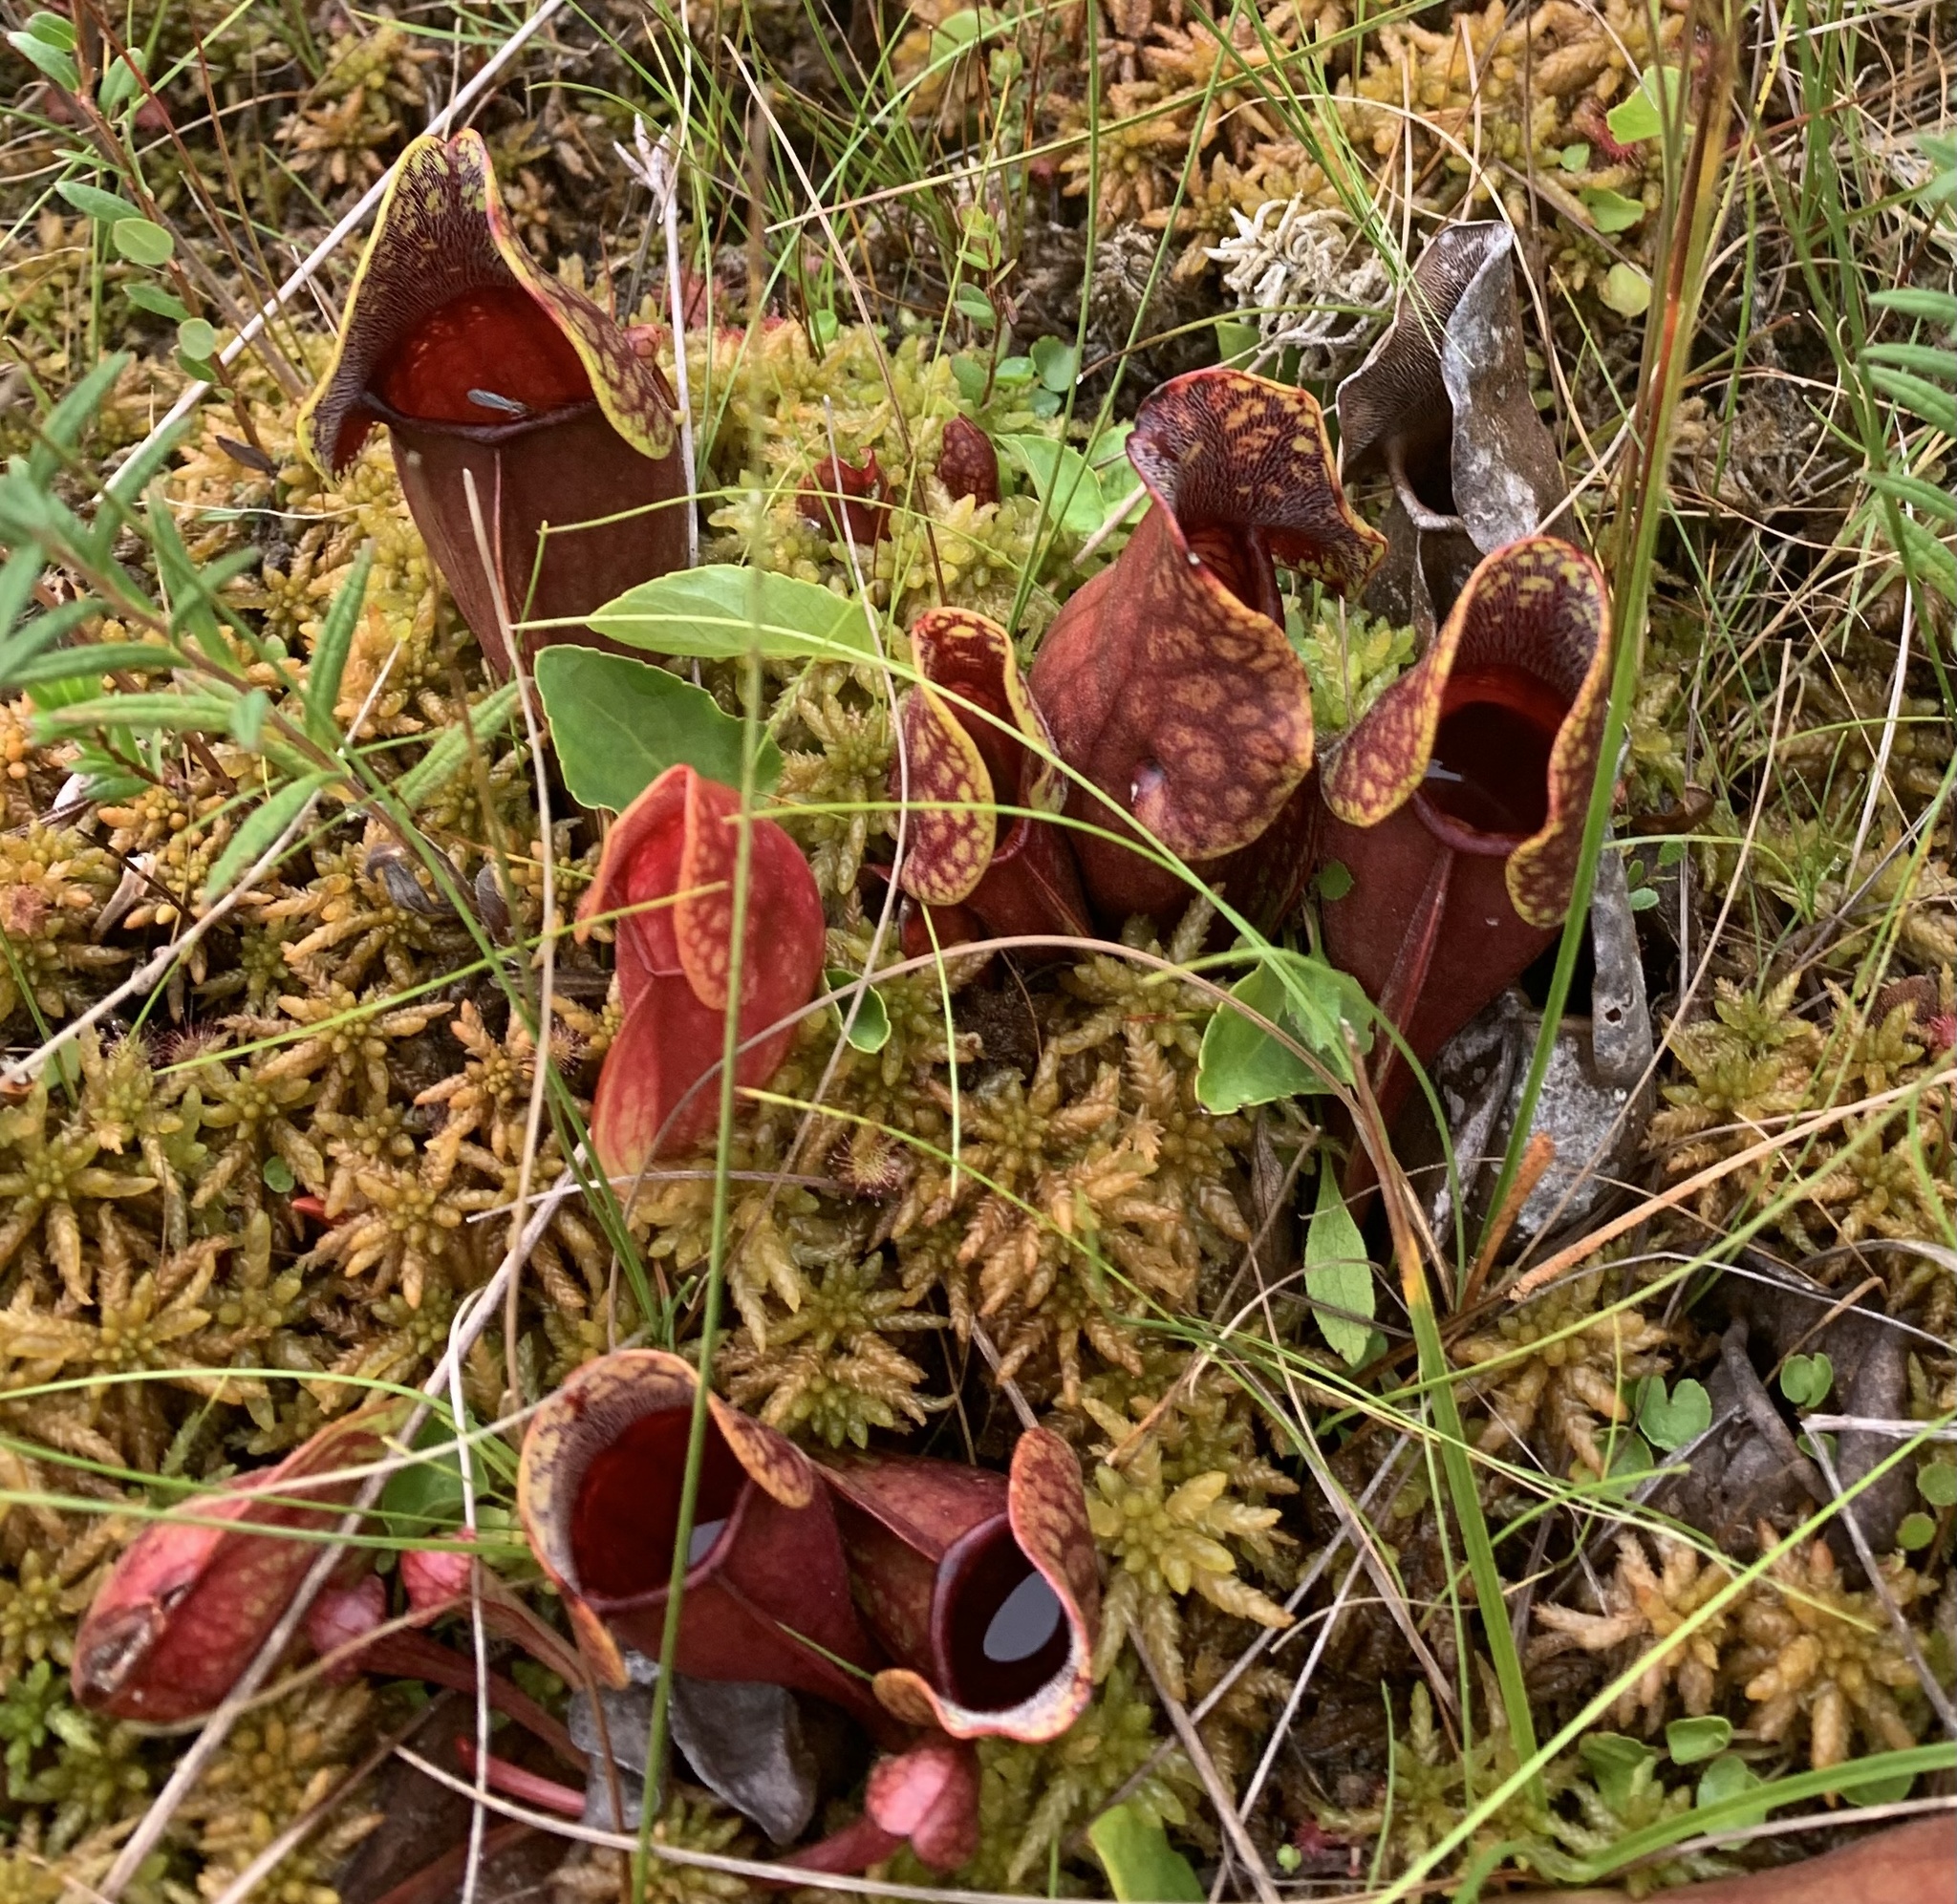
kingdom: Plantae
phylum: Tracheophyta
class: Magnoliopsida
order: Ericales
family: Sarraceniaceae
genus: Sarracenia
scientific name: Sarracenia purpurea
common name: Pitcherplant
